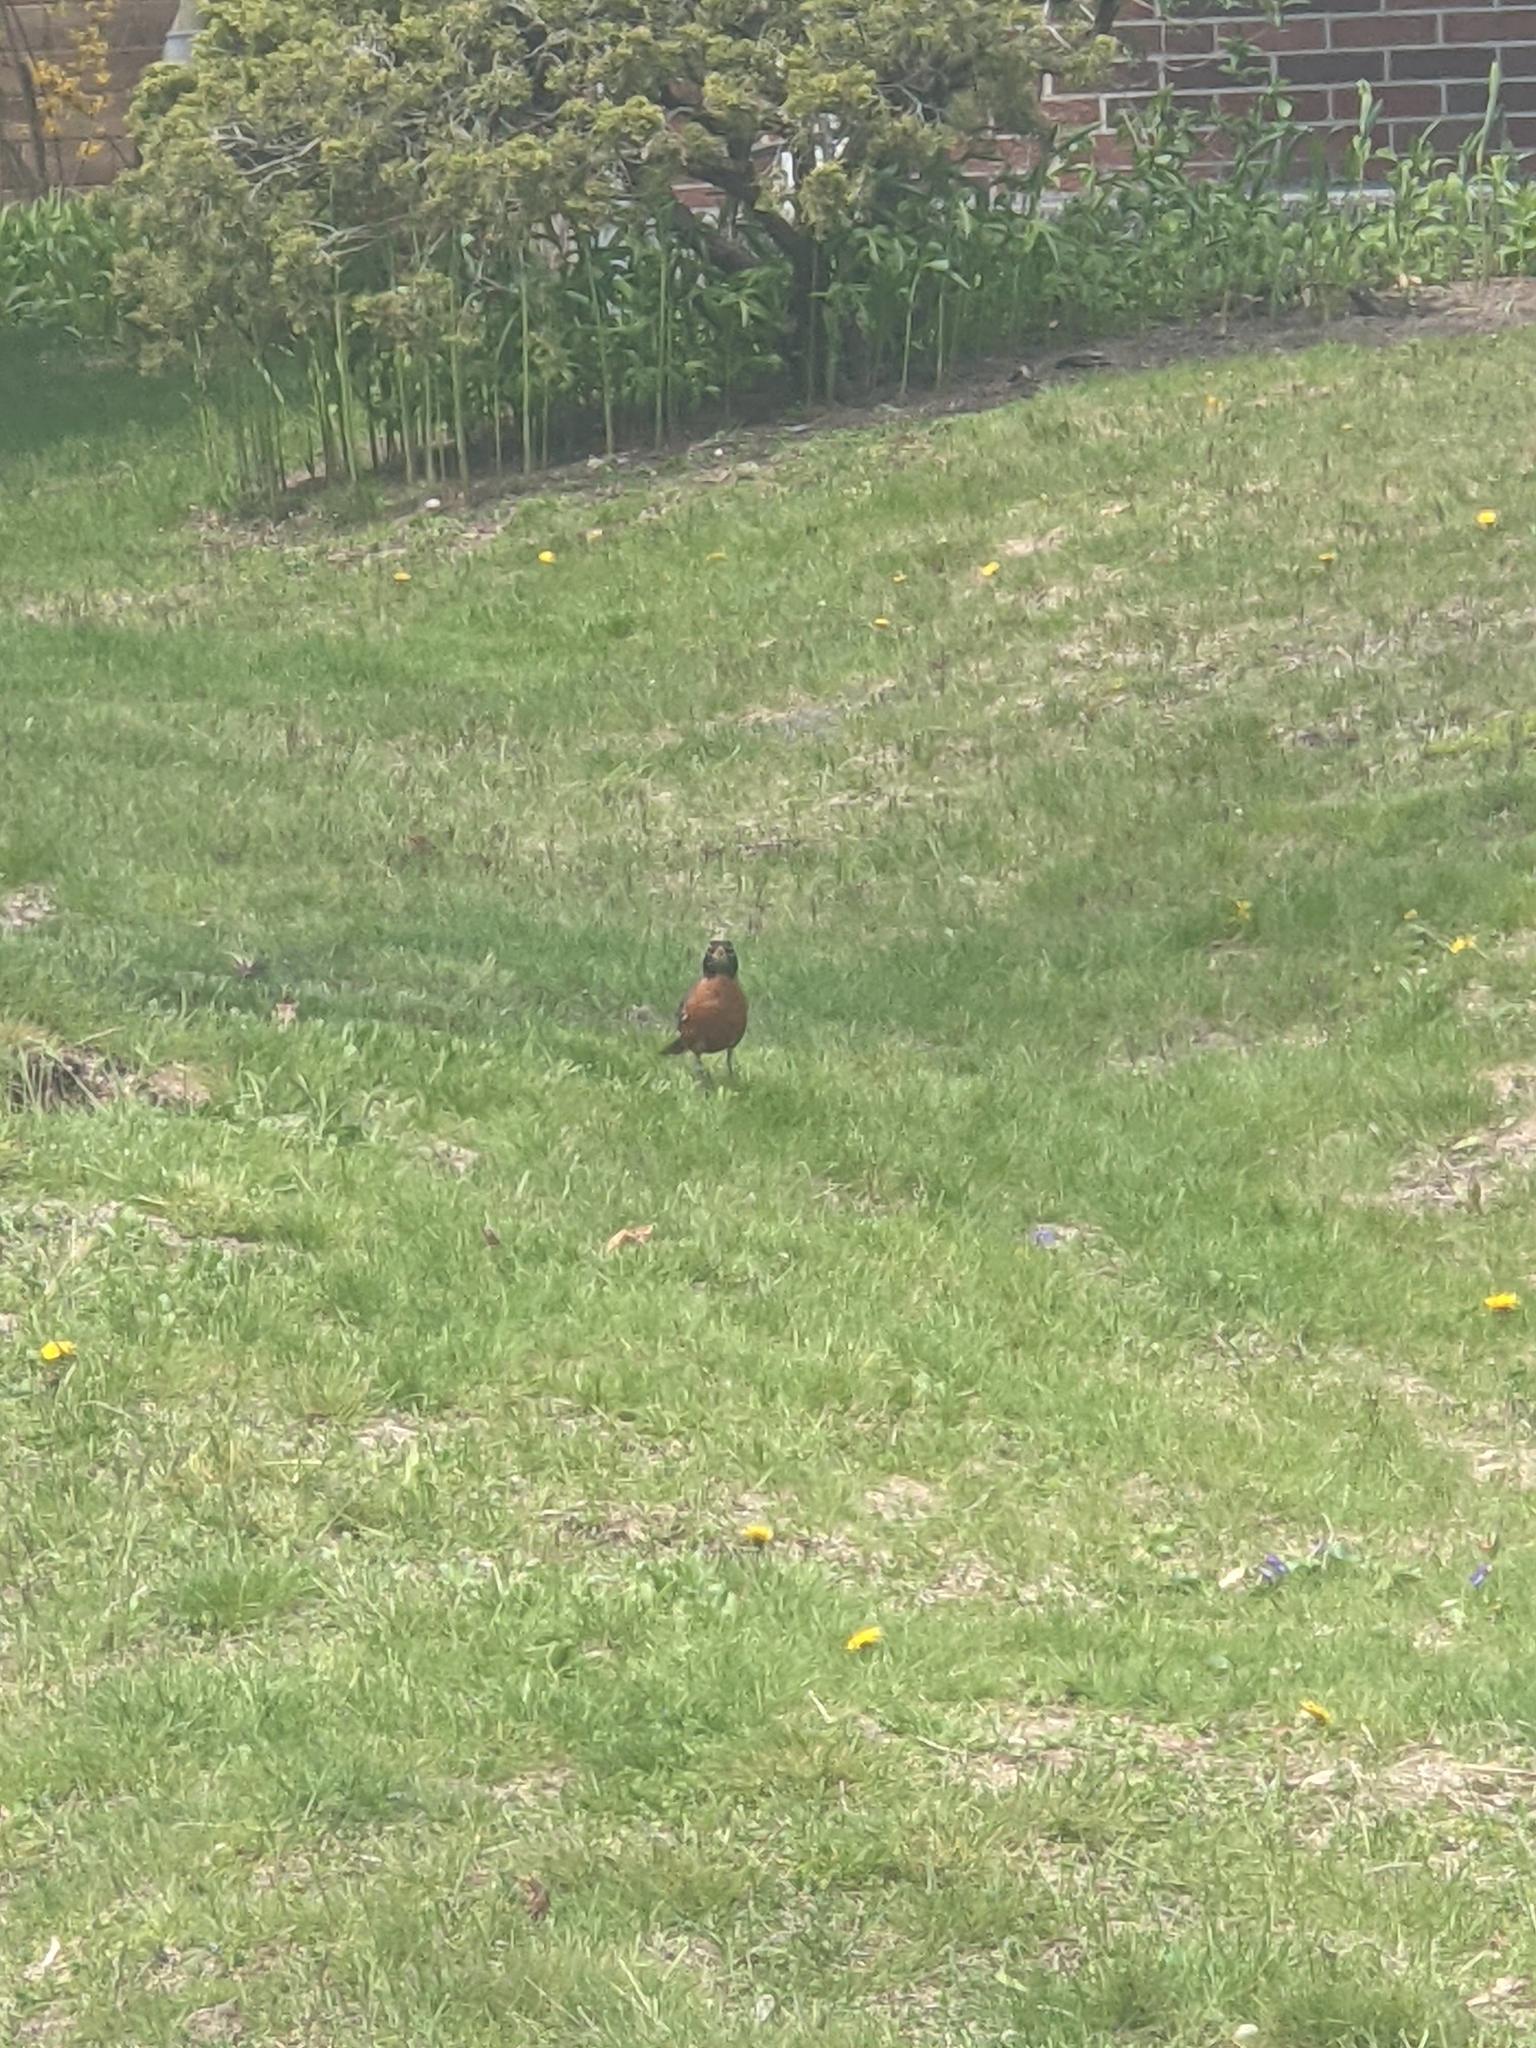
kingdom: Animalia
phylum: Chordata
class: Aves
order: Passeriformes
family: Turdidae
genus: Turdus
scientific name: Turdus migratorius
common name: American robin
